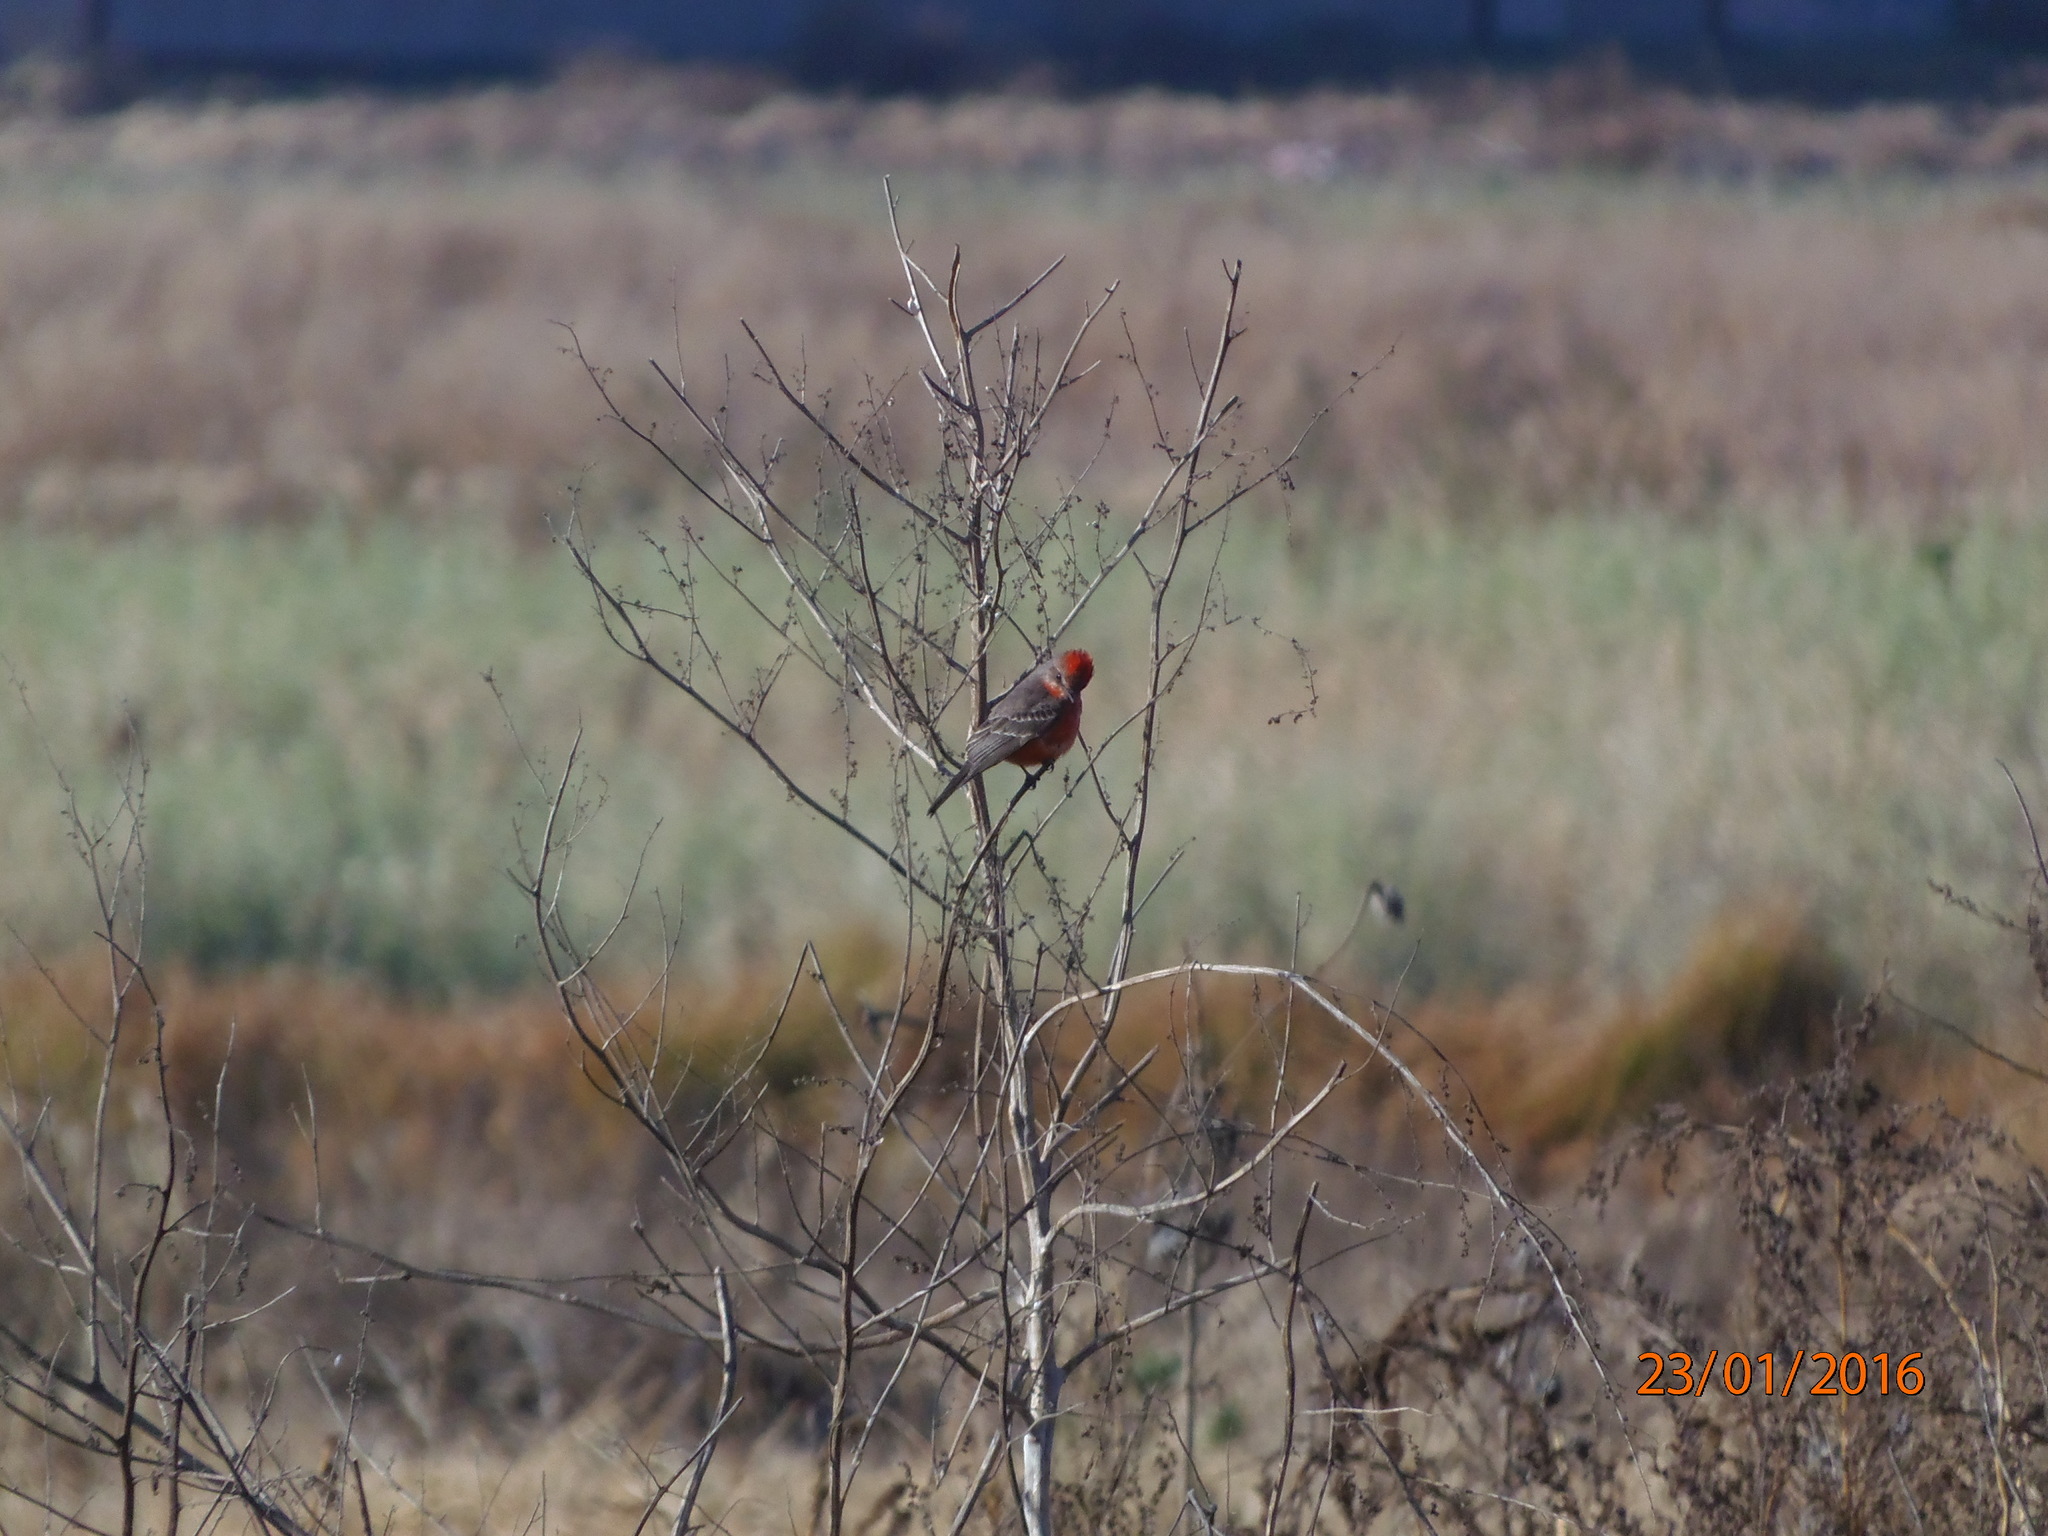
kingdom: Animalia
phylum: Chordata
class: Aves
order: Passeriformes
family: Tyrannidae
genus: Pyrocephalus
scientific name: Pyrocephalus rubinus
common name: Vermilion flycatcher
